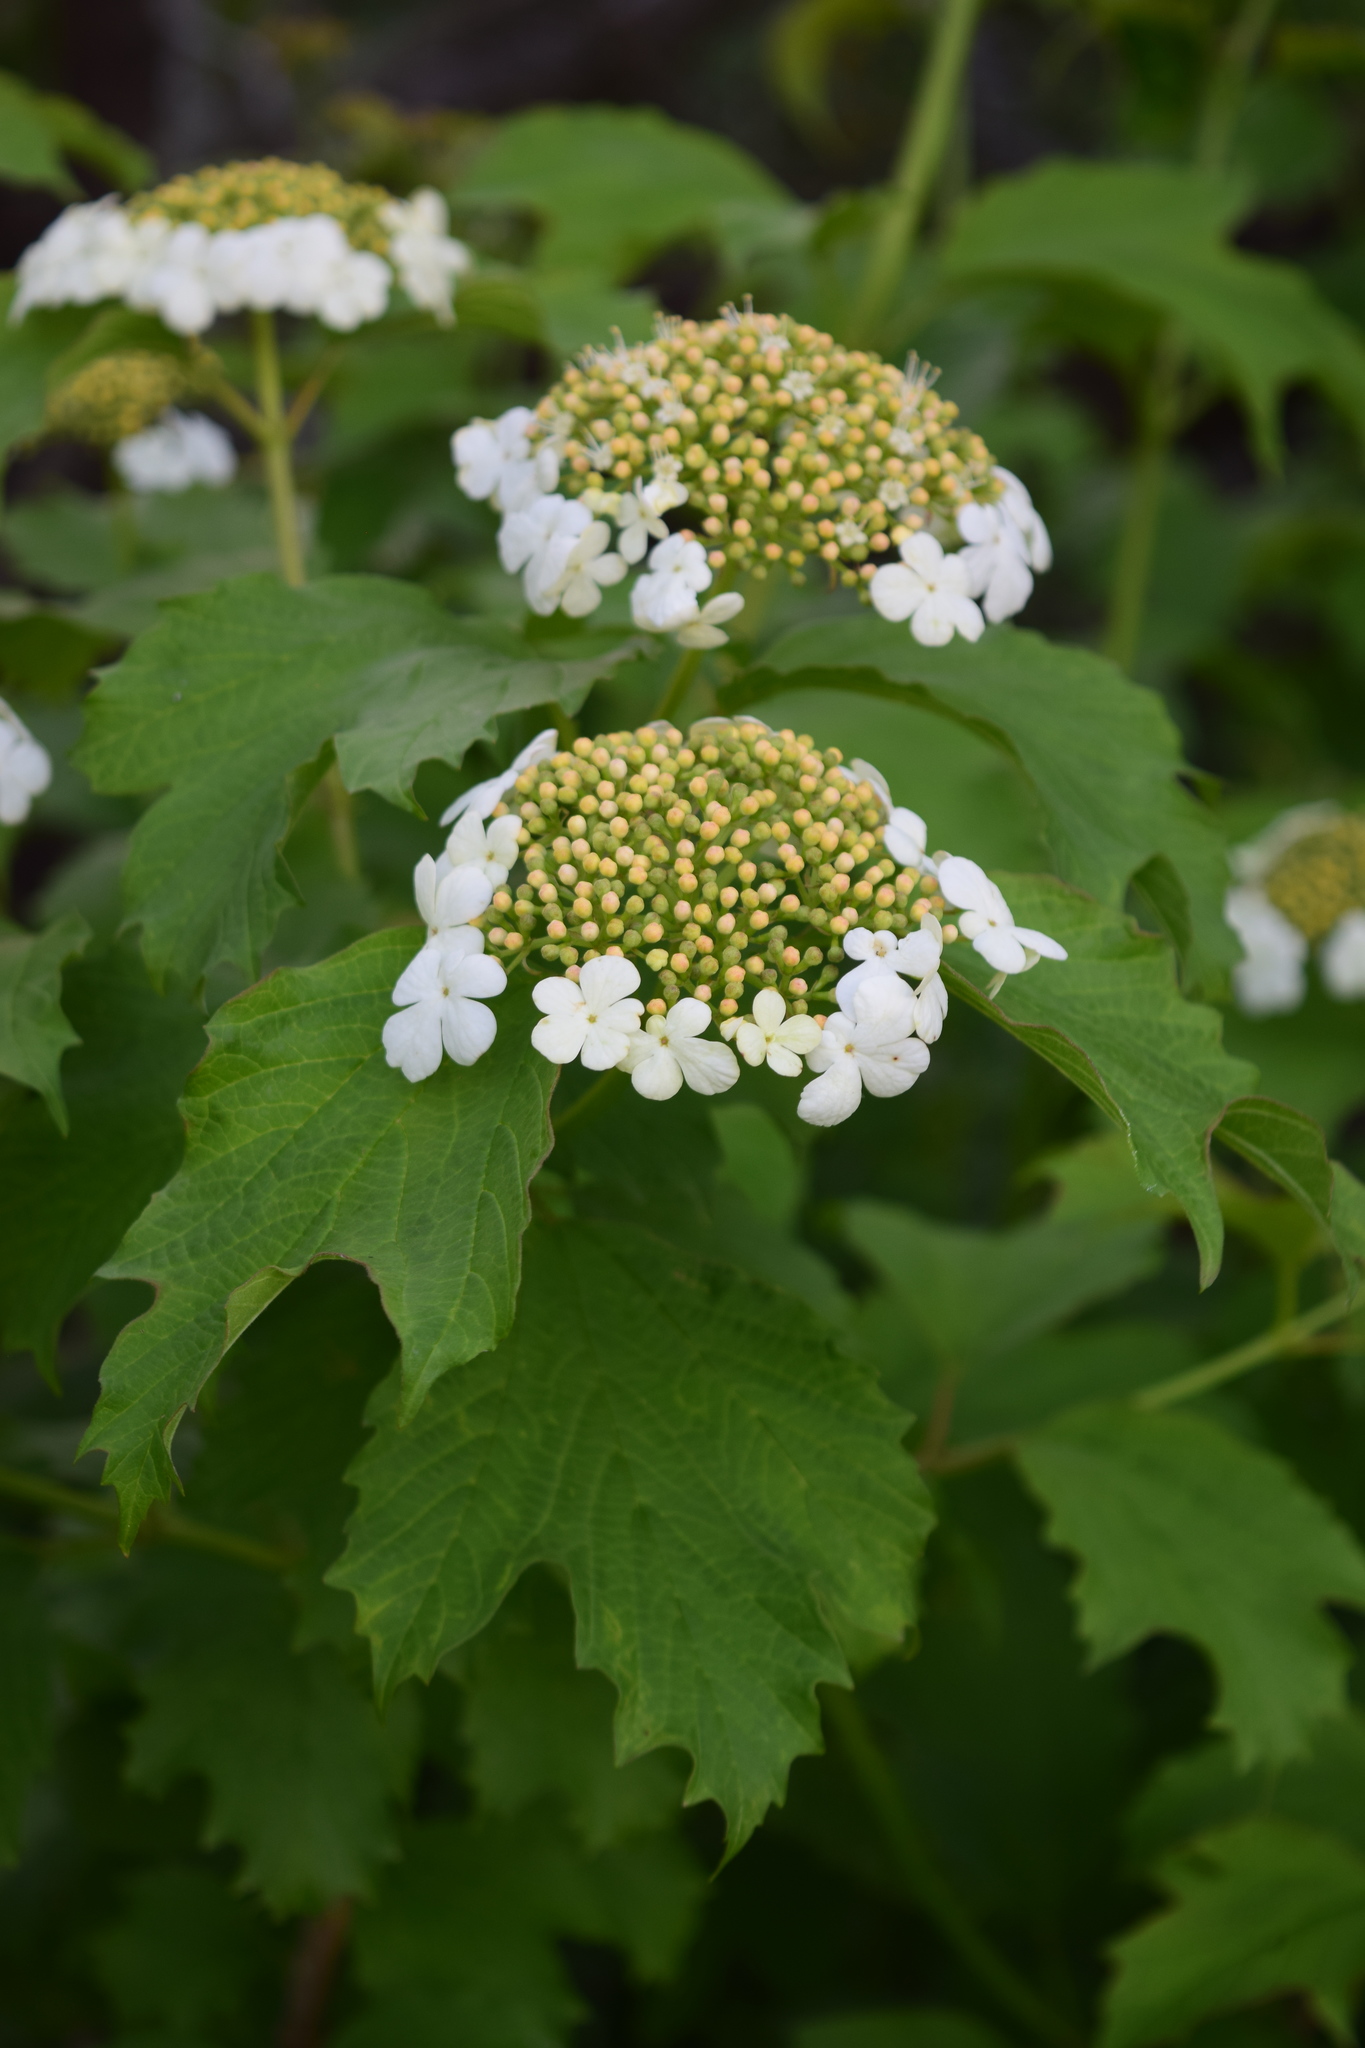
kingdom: Plantae
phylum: Tracheophyta
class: Magnoliopsida
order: Dipsacales
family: Viburnaceae
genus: Viburnum
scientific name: Viburnum opulus
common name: Guelder-rose
